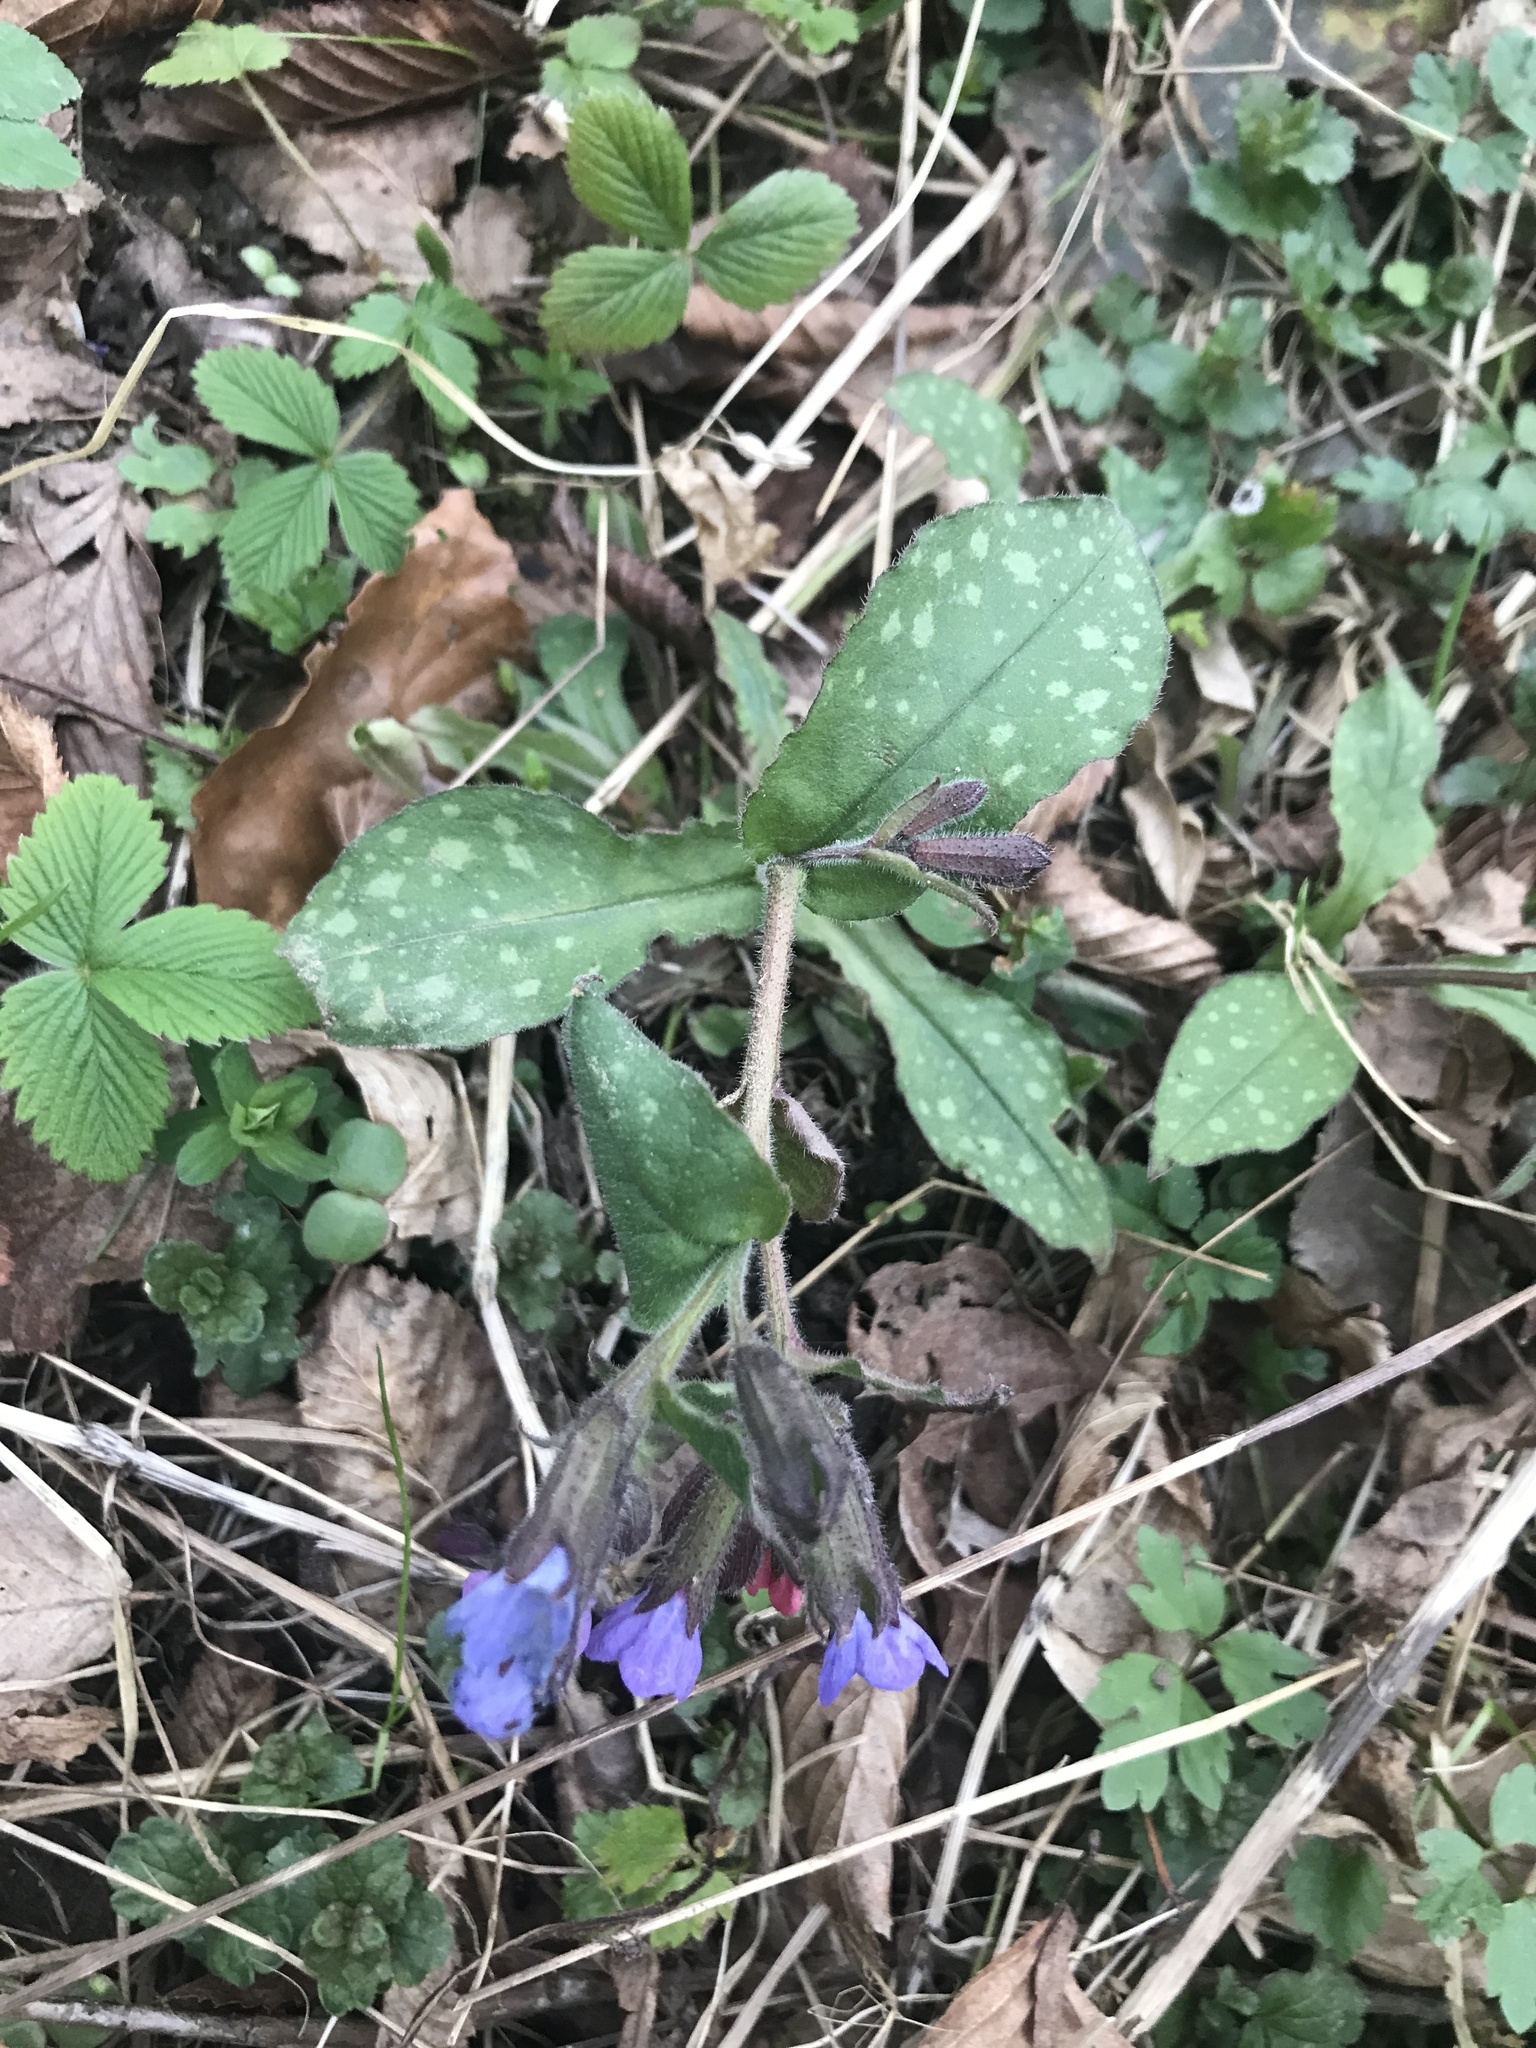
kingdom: Plantae
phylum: Tracheophyta
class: Magnoliopsida
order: Boraginales
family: Boraginaceae
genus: Pulmonaria
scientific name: Pulmonaria officinalis
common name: Lungwort
